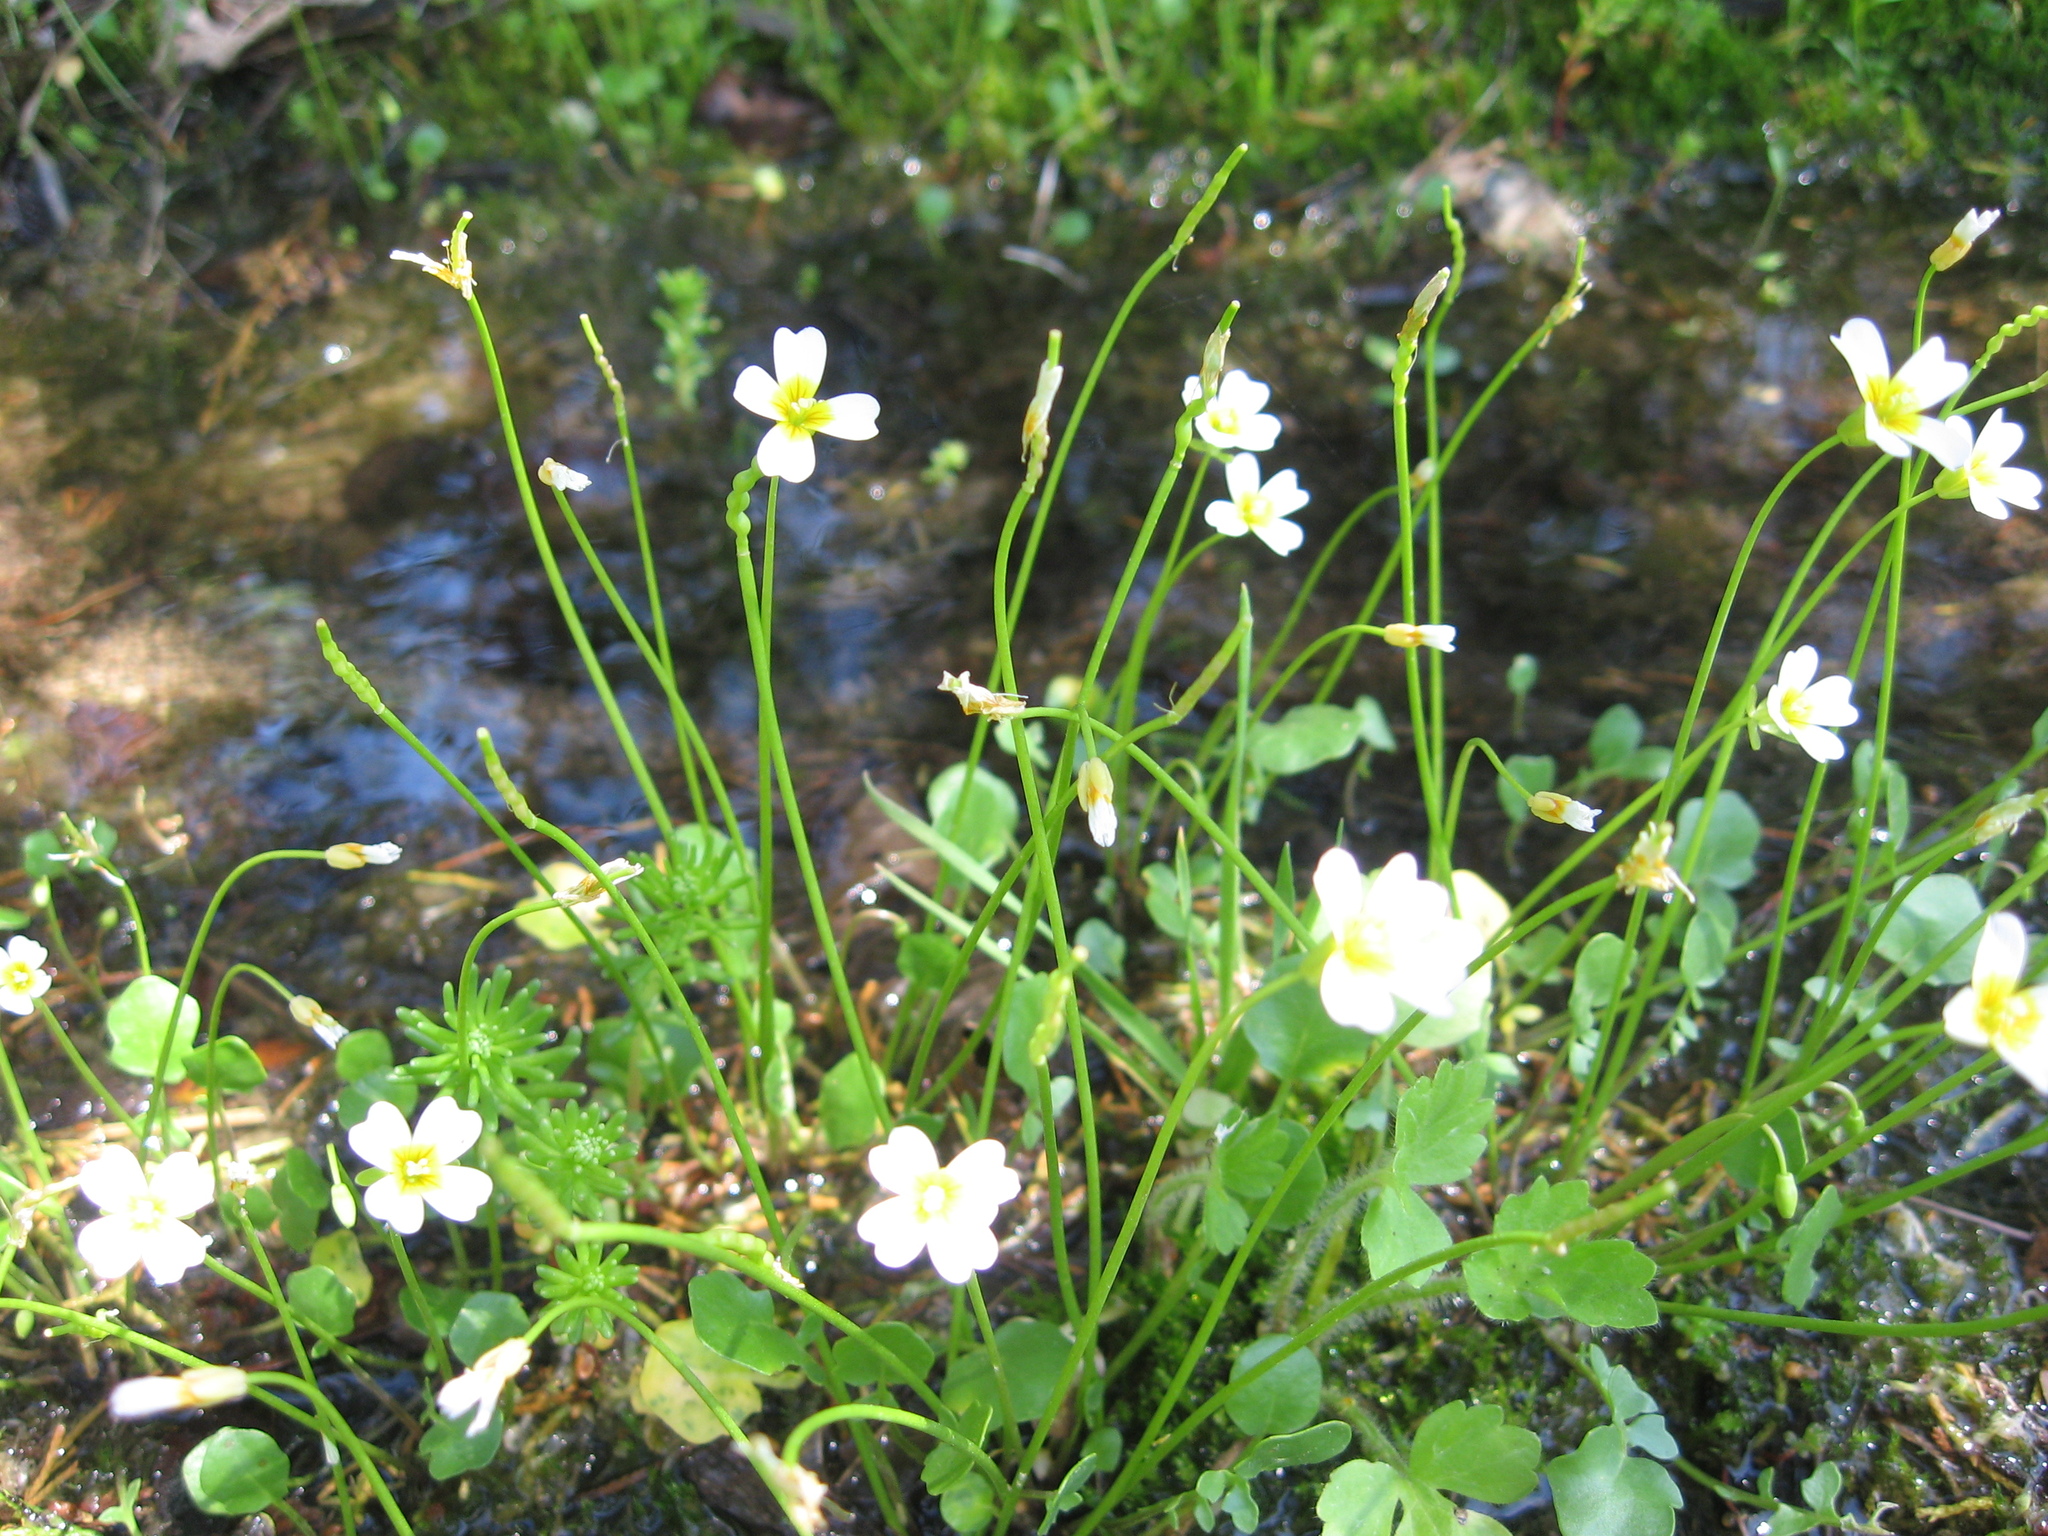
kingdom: Plantae
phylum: Tracheophyta
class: Magnoliopsida
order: Brassicales
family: Brassicaceae
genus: Leavenworthia
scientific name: Leavenworthia torulosa
